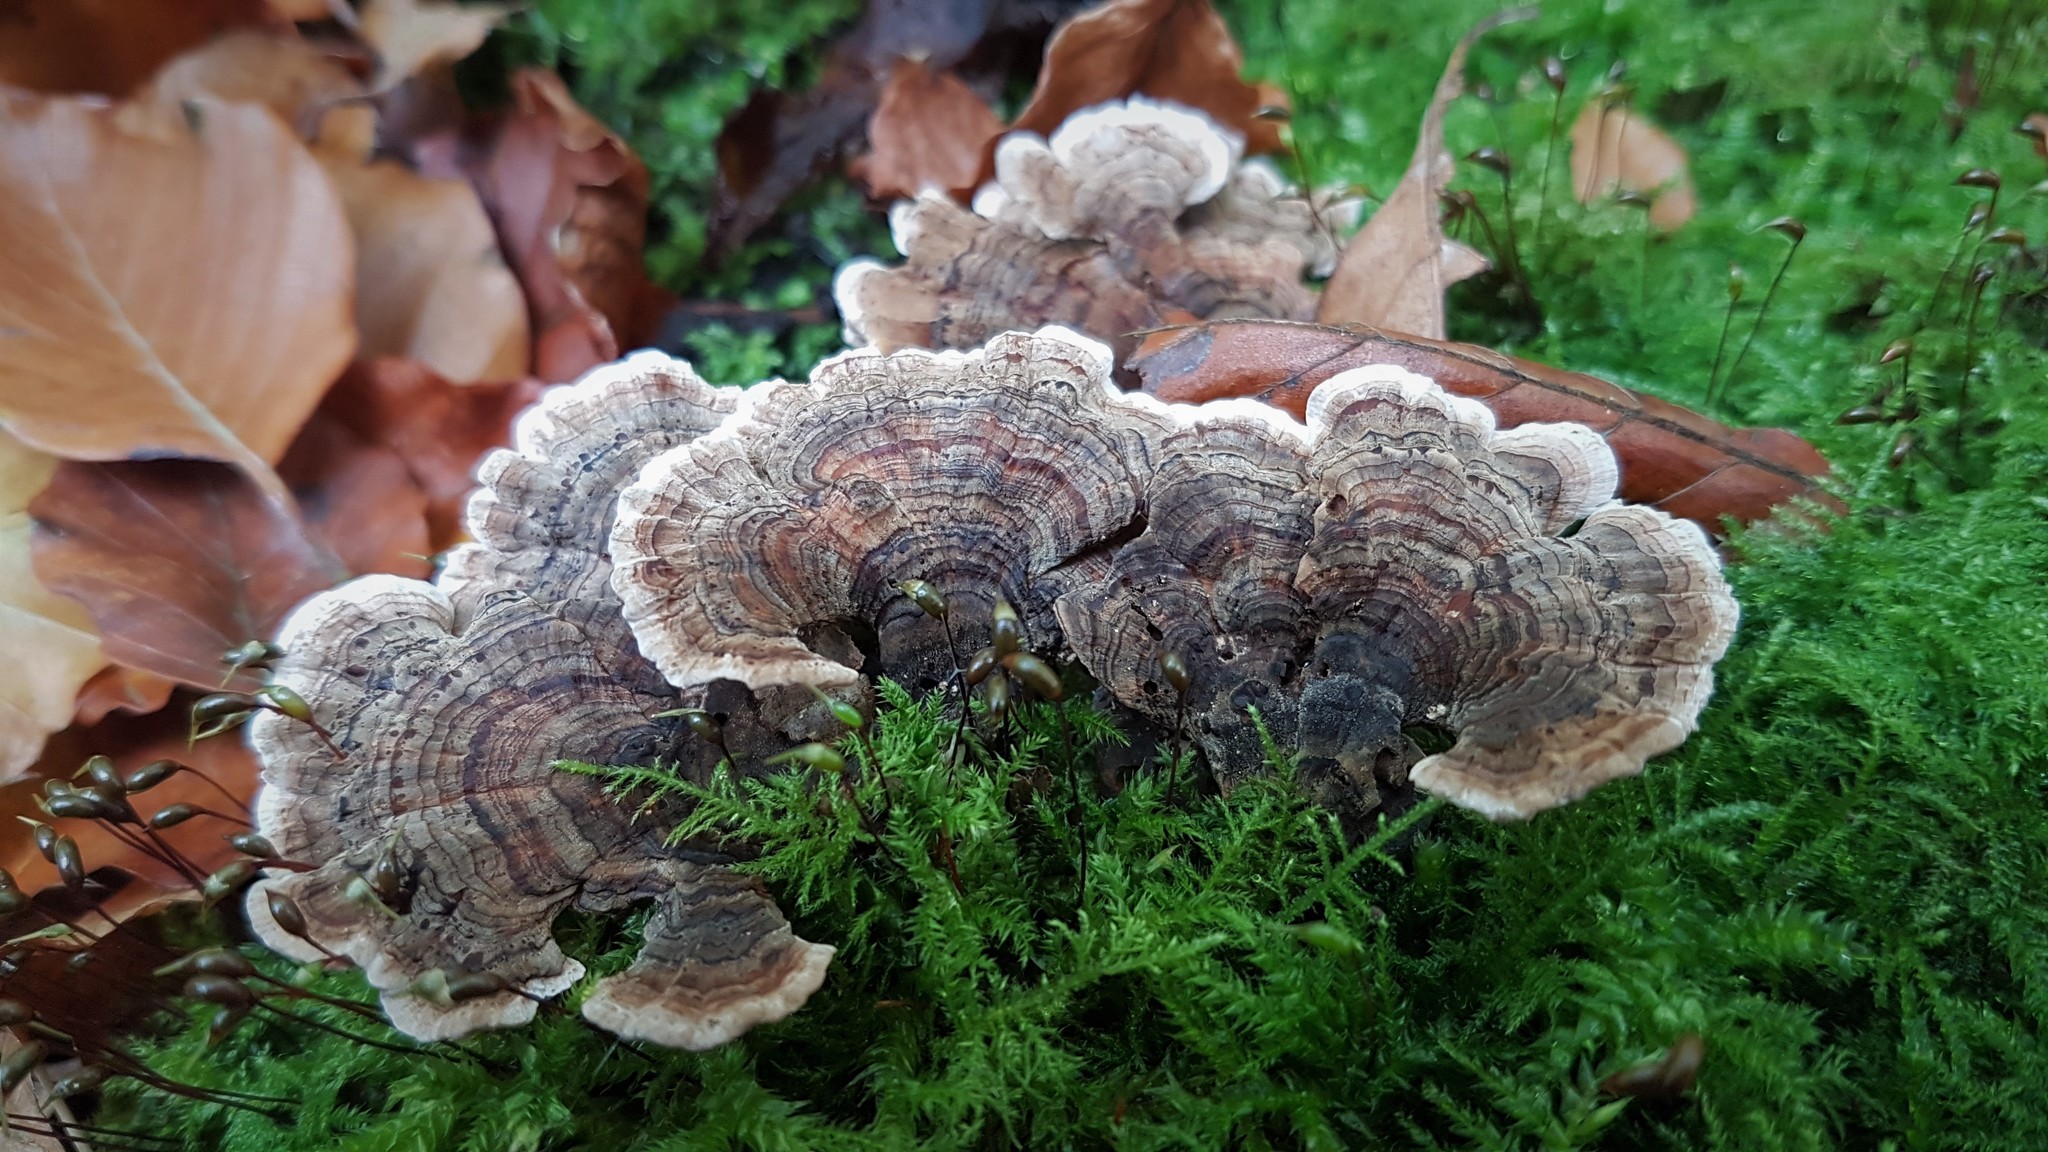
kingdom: Fungi
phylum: Basidiomycota
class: Agaricomycetes
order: Polyporales
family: Polyporaceae
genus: Trametes
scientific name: Trametes versicolor
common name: Turkeytail
